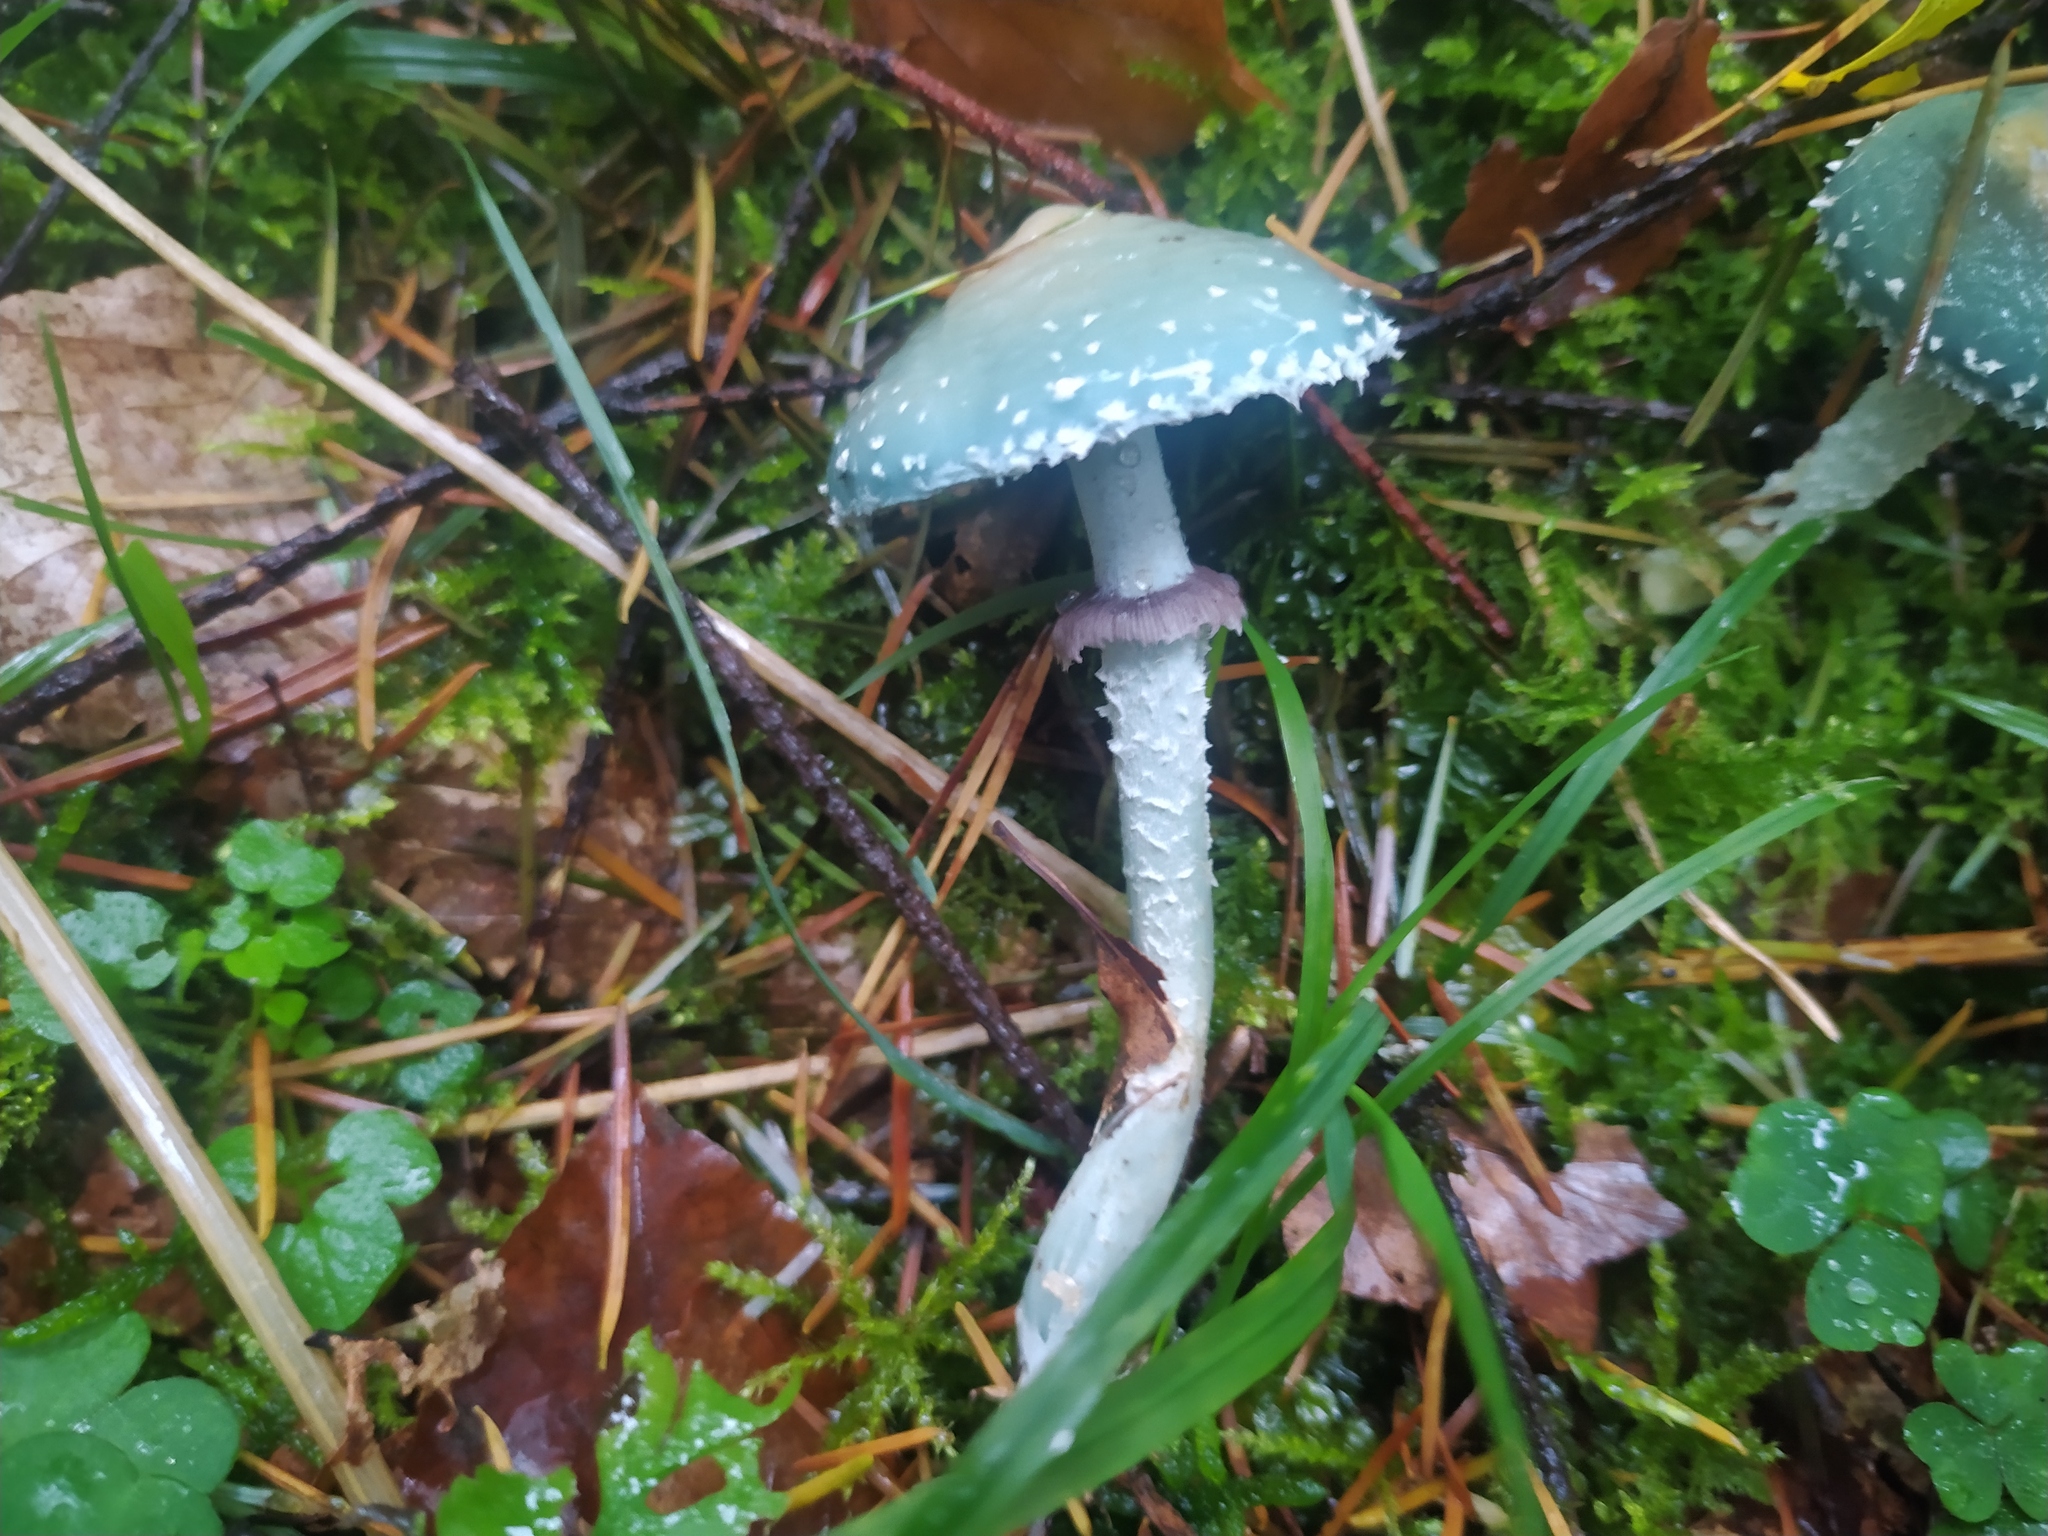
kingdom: Fungi
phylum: Basidiomycota
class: Agaricomycetes
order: Agaricales
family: Strophariaceae
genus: Stropharia
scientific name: Stropharia aeruginosa
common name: Verdigris roundhead
